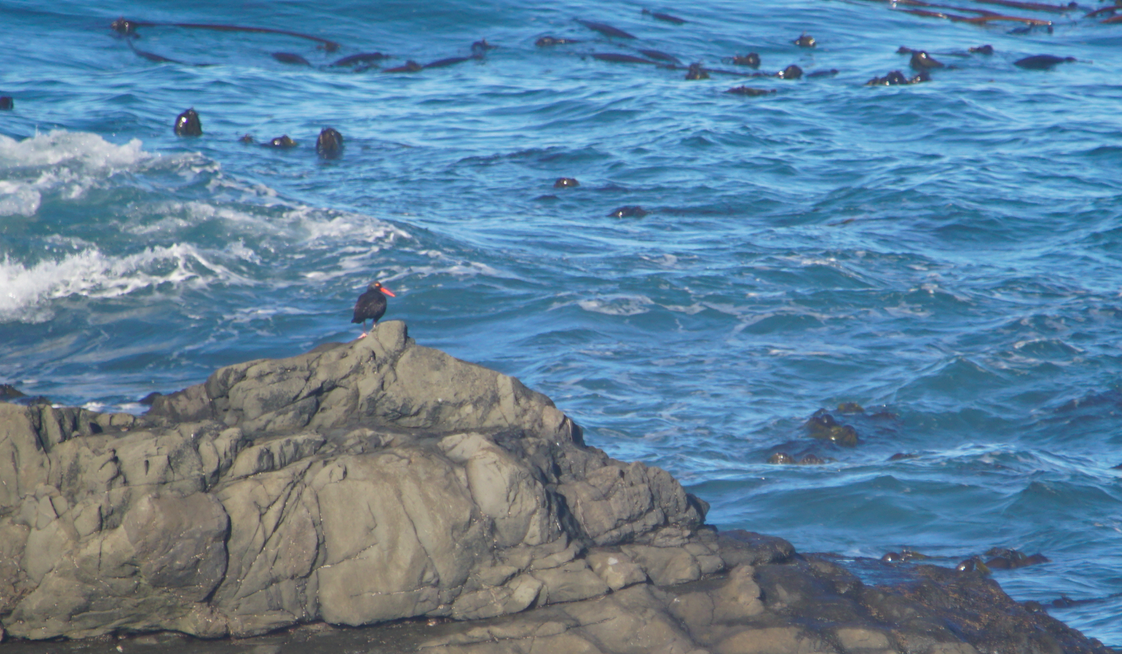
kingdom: Animalia
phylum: Chordata
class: Aves
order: Charadriiformes
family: Haematopodidae
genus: Haematopus
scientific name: Haematopus bachmani
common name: Black oystercatcher
